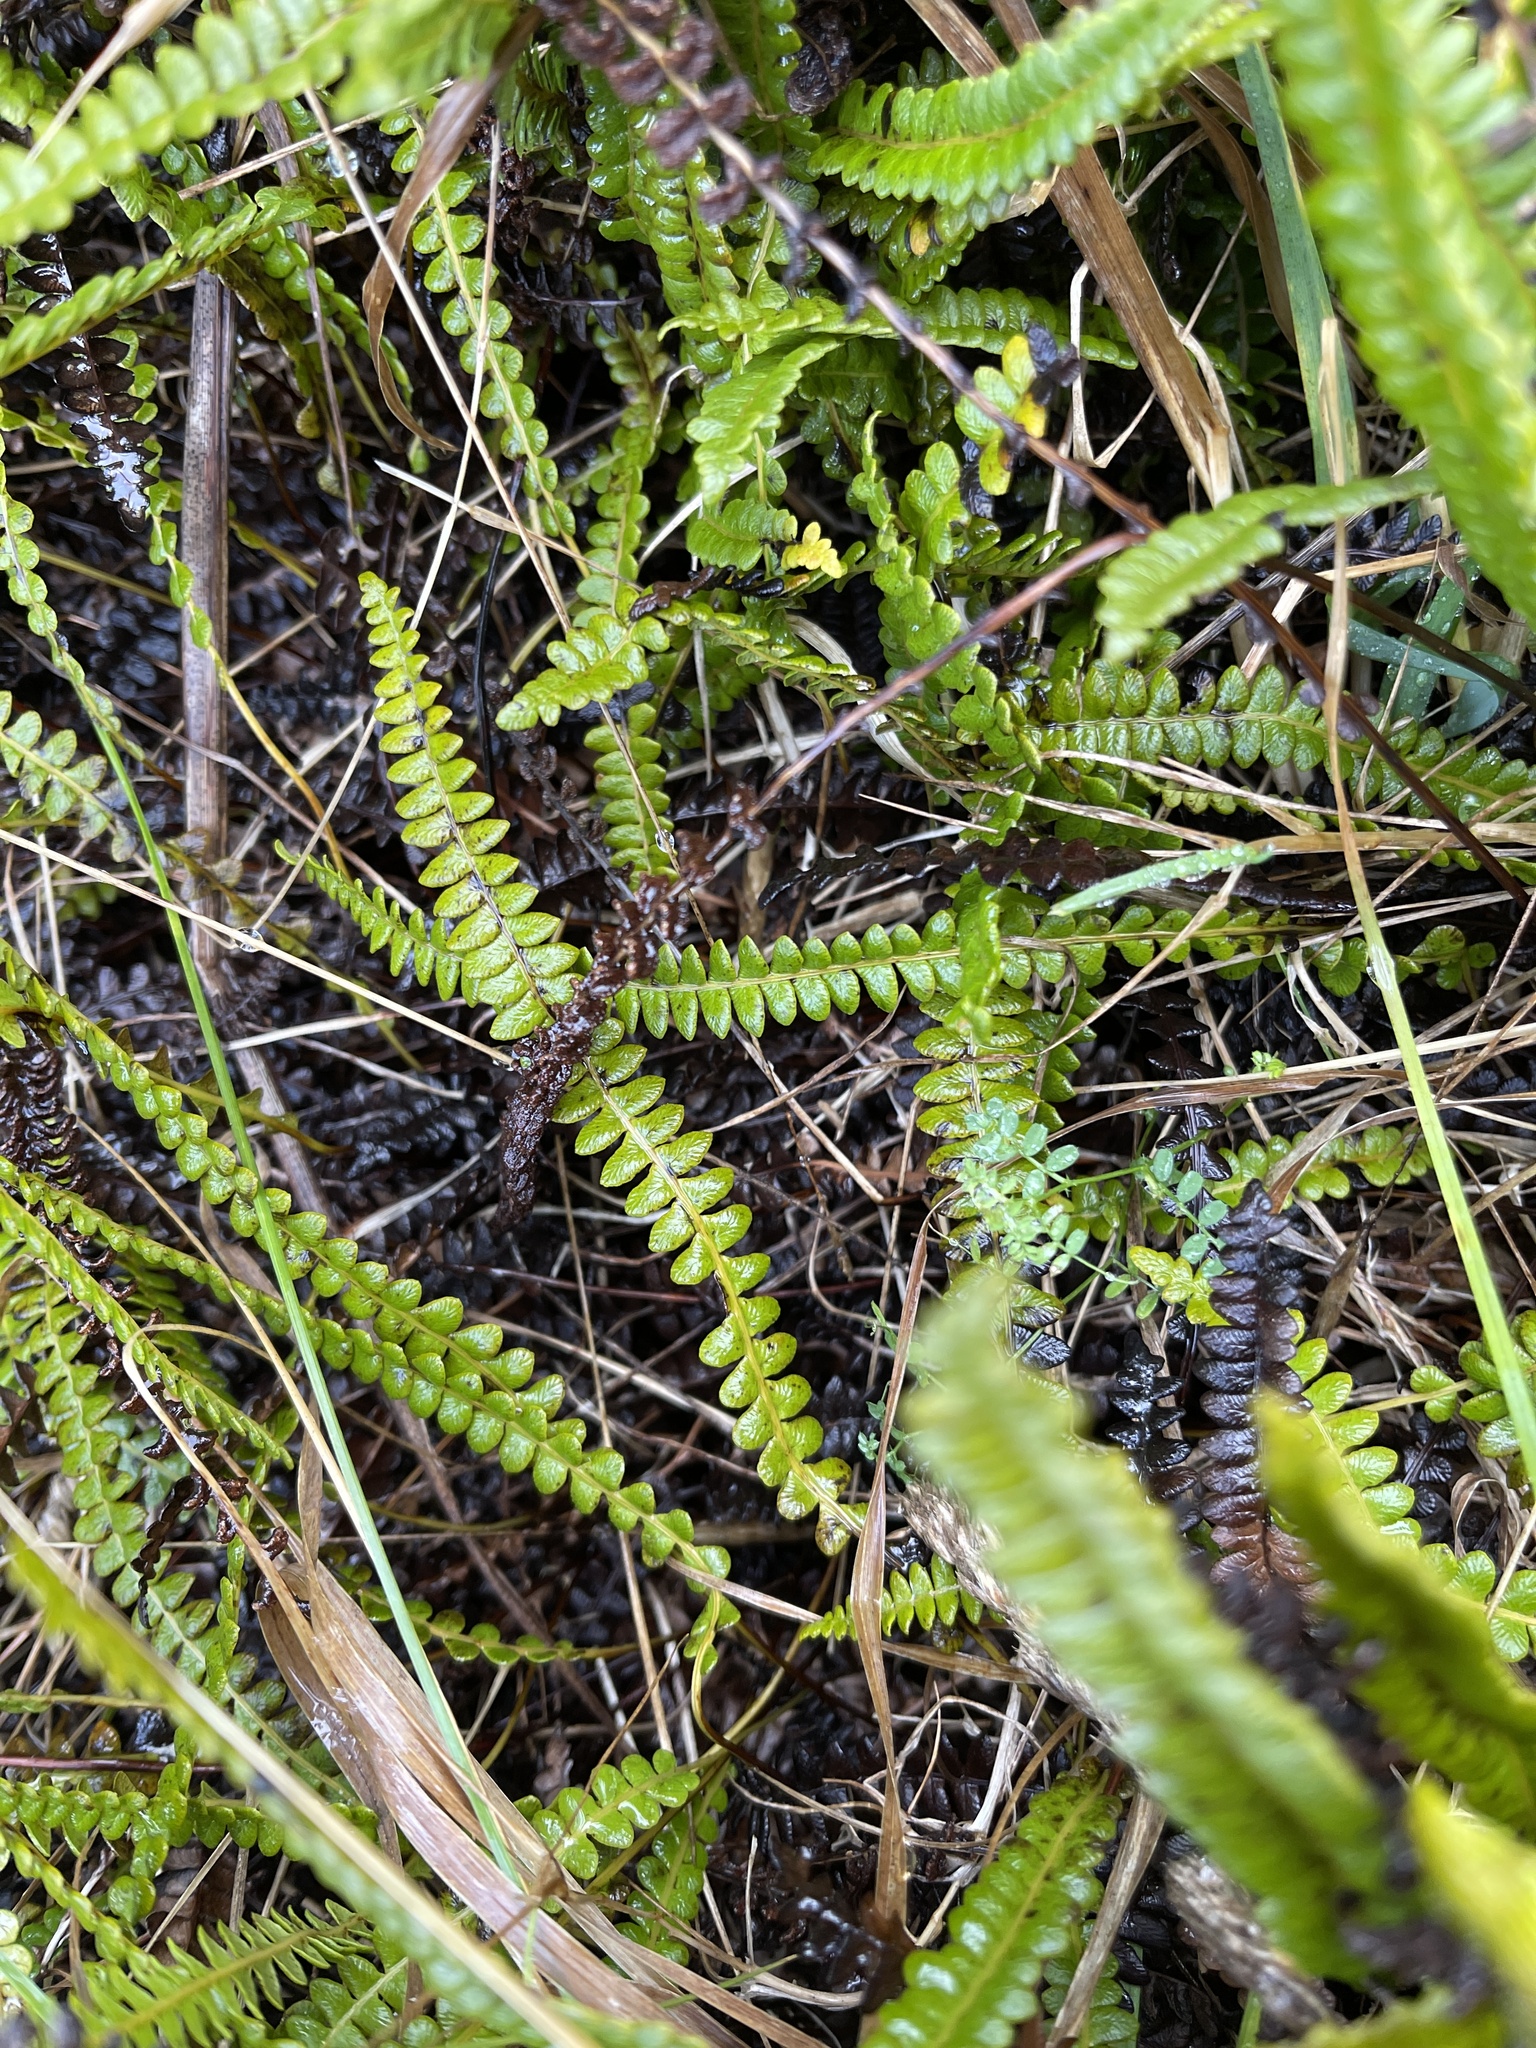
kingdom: Plantae
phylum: Tracheophyta
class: Polypodiopsida
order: Polypodiales
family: Blechnaceae
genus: Austroblechnum
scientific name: Austroblechnum penna-marina
